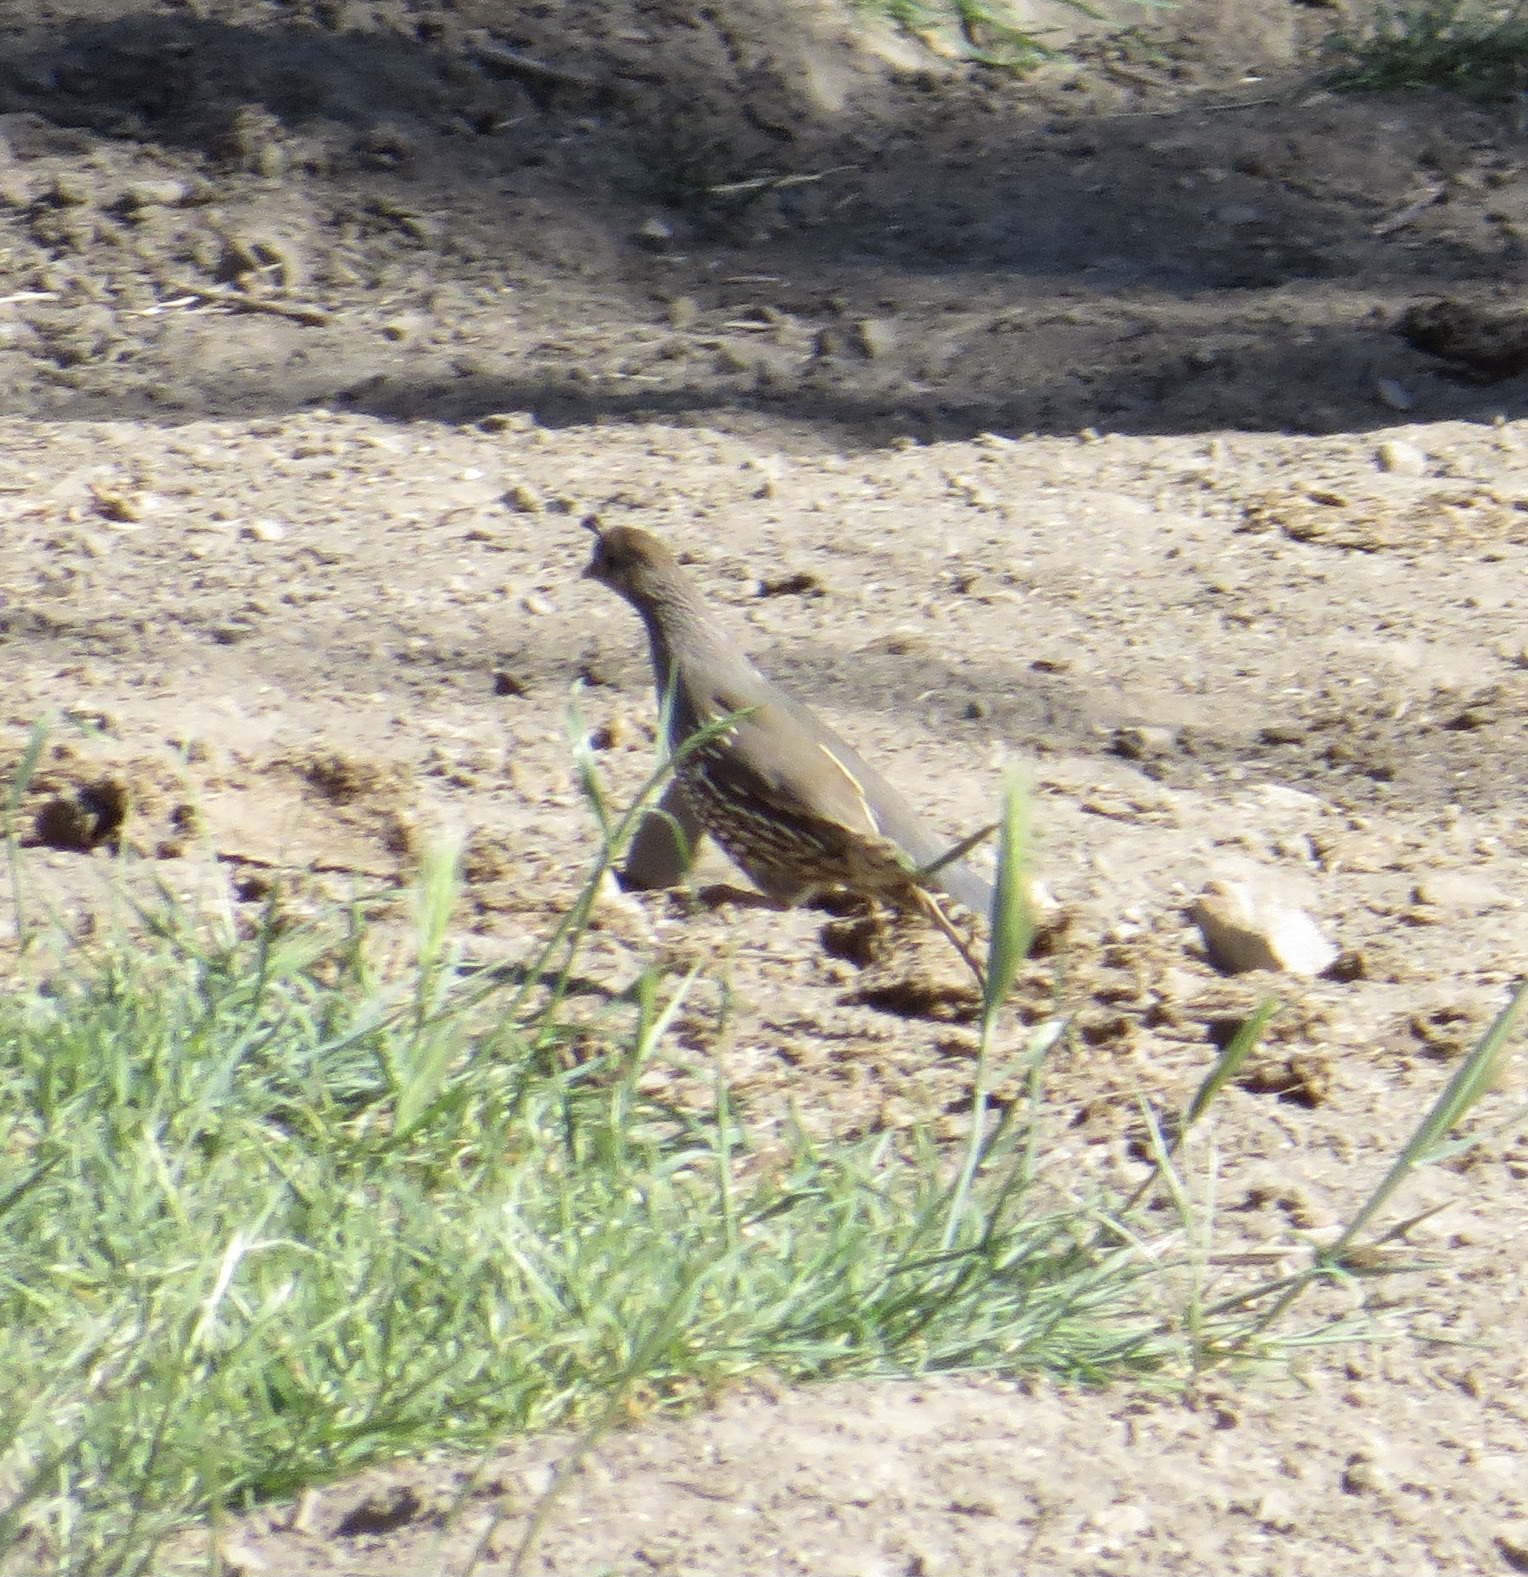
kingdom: Animalia
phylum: Chordata
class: Aves
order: Galliformes
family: Odontophoridae
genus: Callipepla
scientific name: Callipepla californica
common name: California quail
